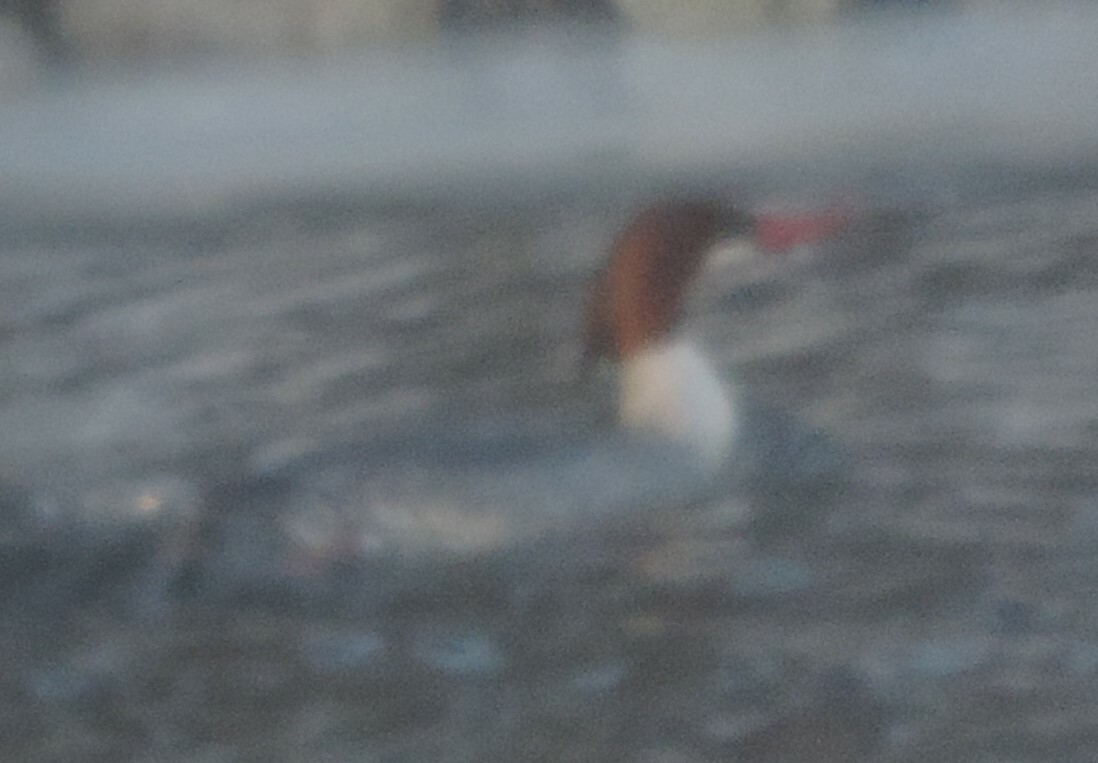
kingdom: Animalia
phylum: Chordata
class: Aves
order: Anseriformes
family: Anatidae
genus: Mergus
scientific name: Mergus merganser
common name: Common merganser
